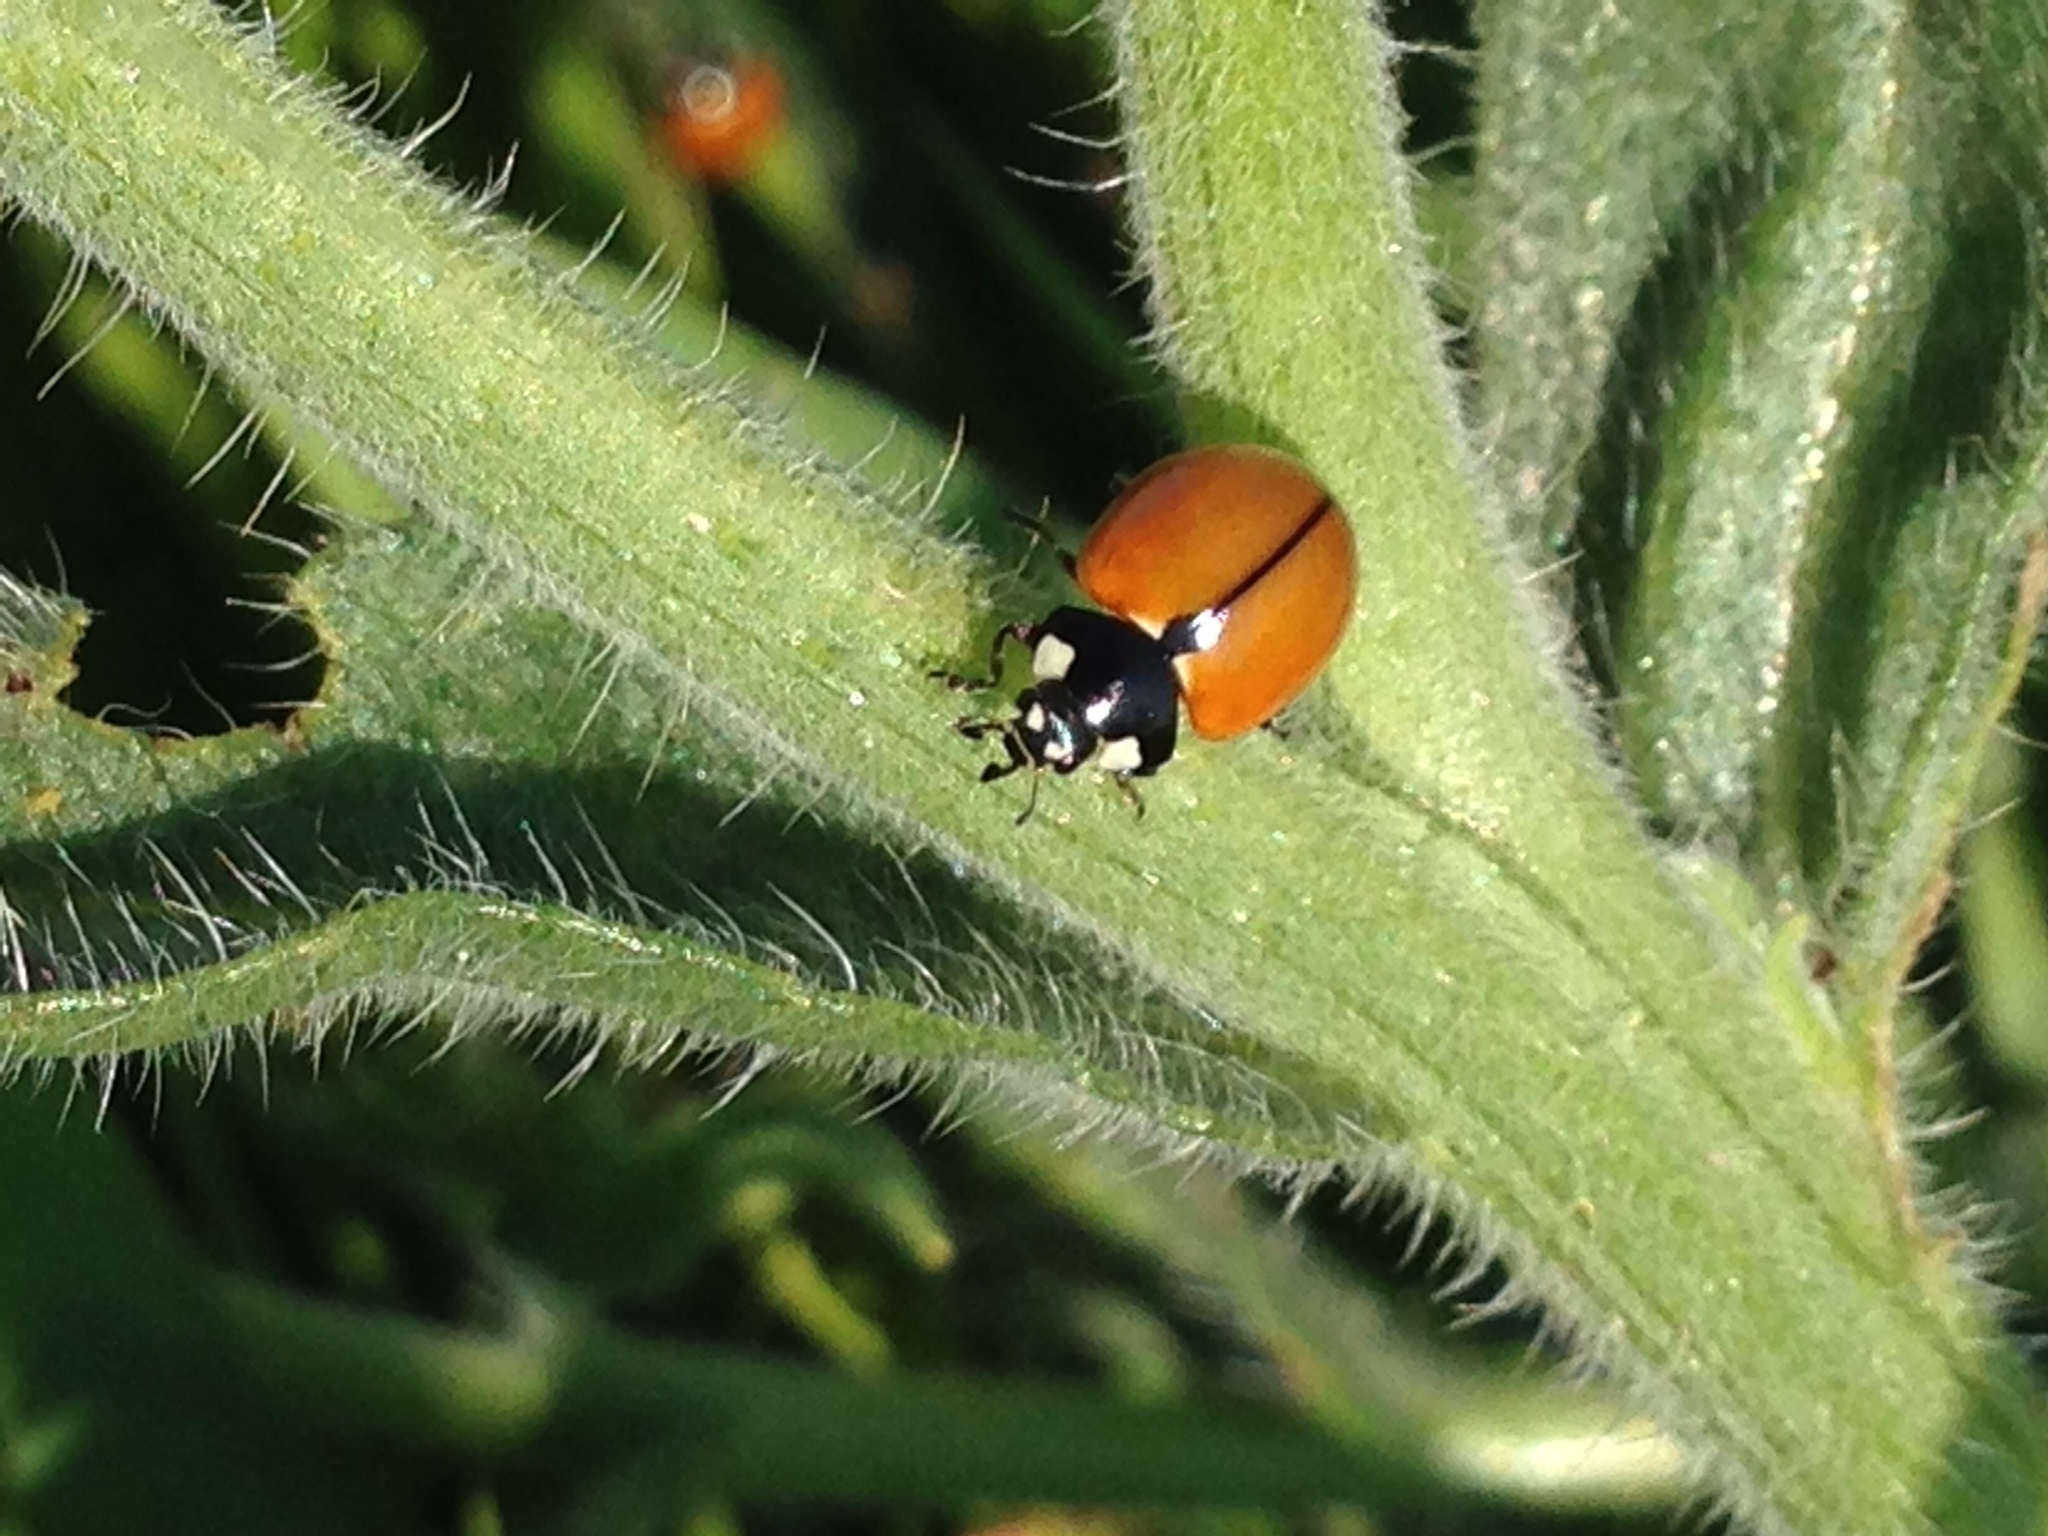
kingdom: Animalia
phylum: Arthropoda
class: Insecta
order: Coleoptera
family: Coccinellidae
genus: Coccinella
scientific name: Coccinella californica
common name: Lady beetle
